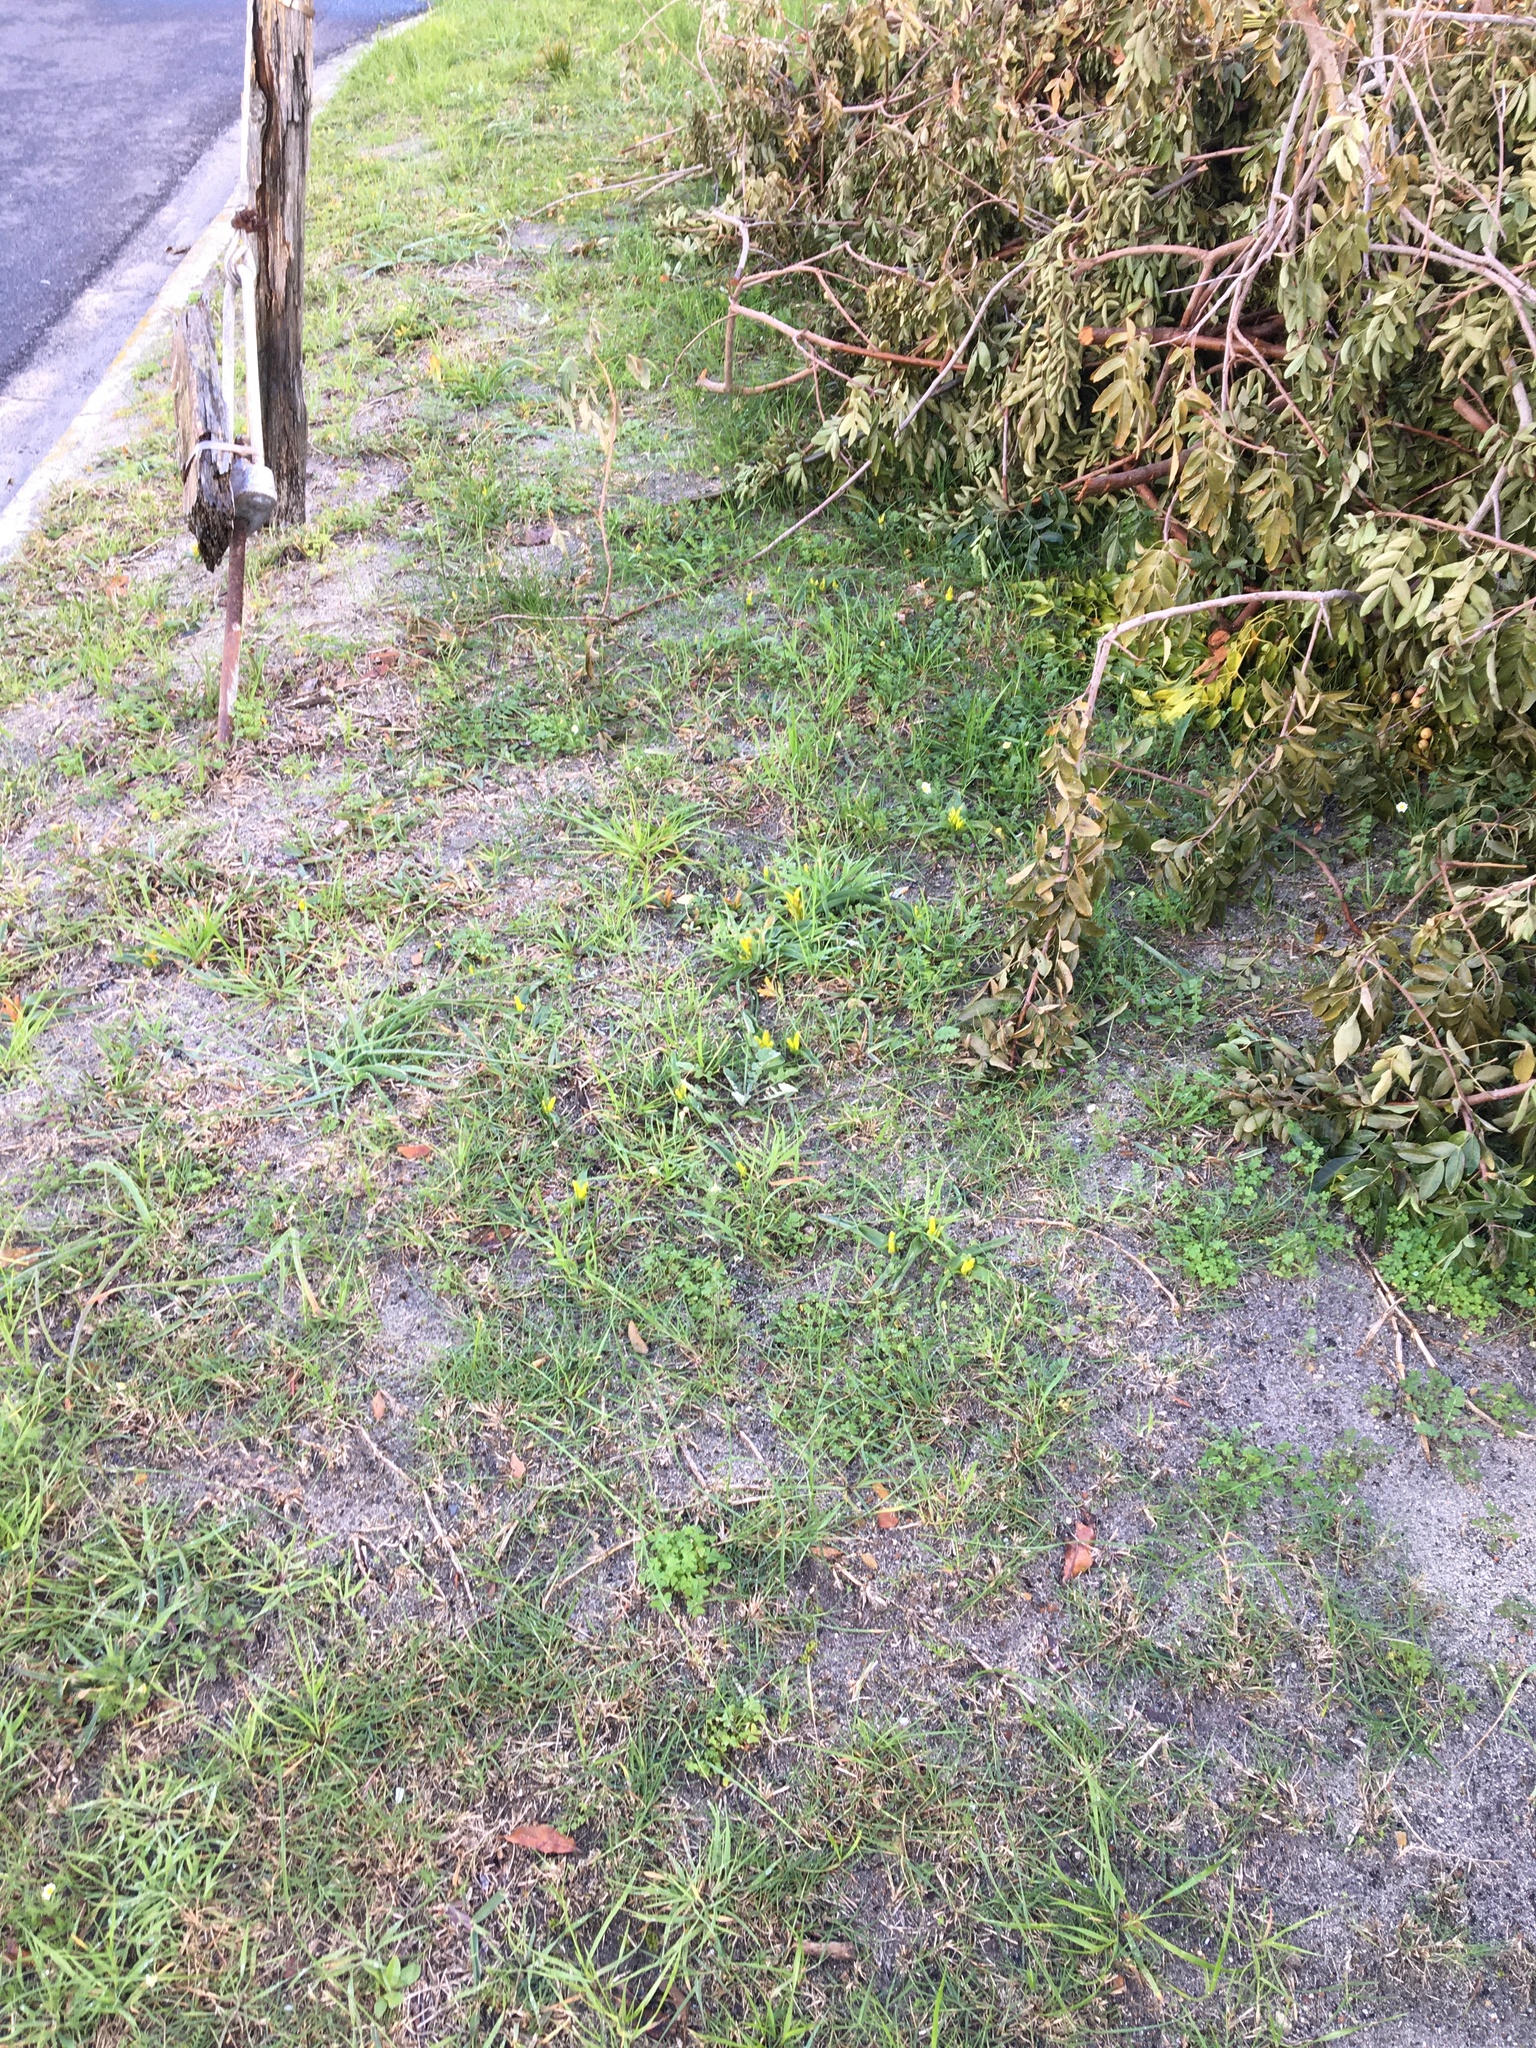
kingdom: Plantae
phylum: Tracheophyta
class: Liliopsida
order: Asparagales
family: Asparagaceae
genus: Lachenalia
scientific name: Lachenalia reflexa
